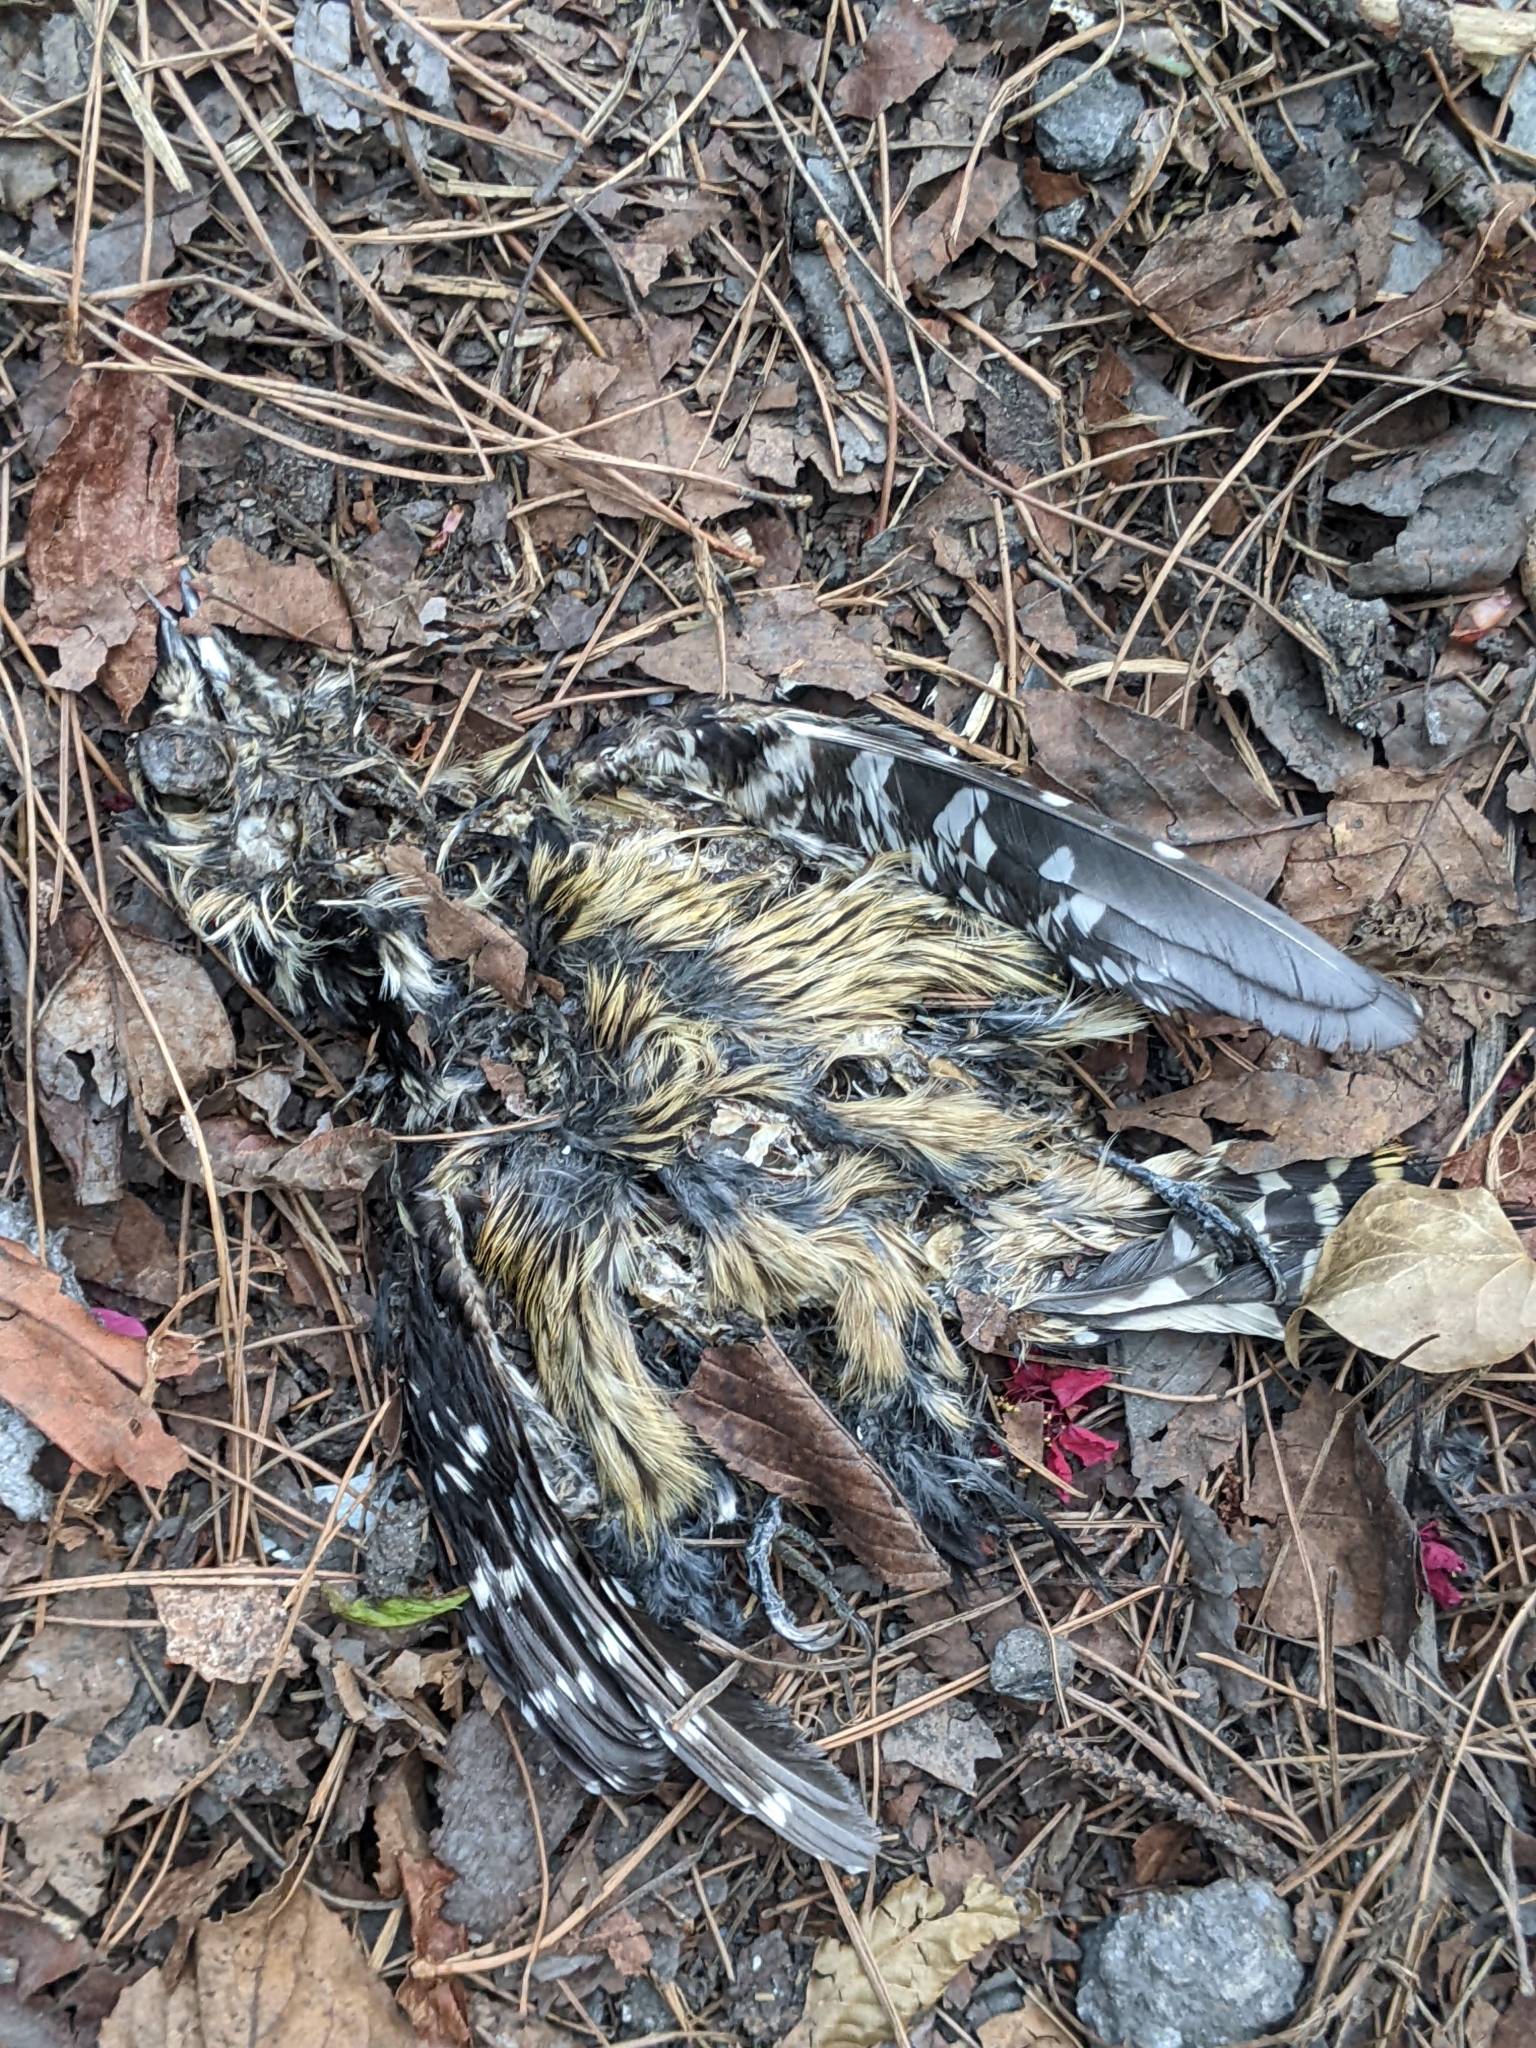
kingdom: Animalia
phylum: Chordata
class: Aves
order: Piciformes
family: Picidae
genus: Yungipicus
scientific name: Yungipicus canicapillus
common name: Grey-capped pygmy woodpecker
